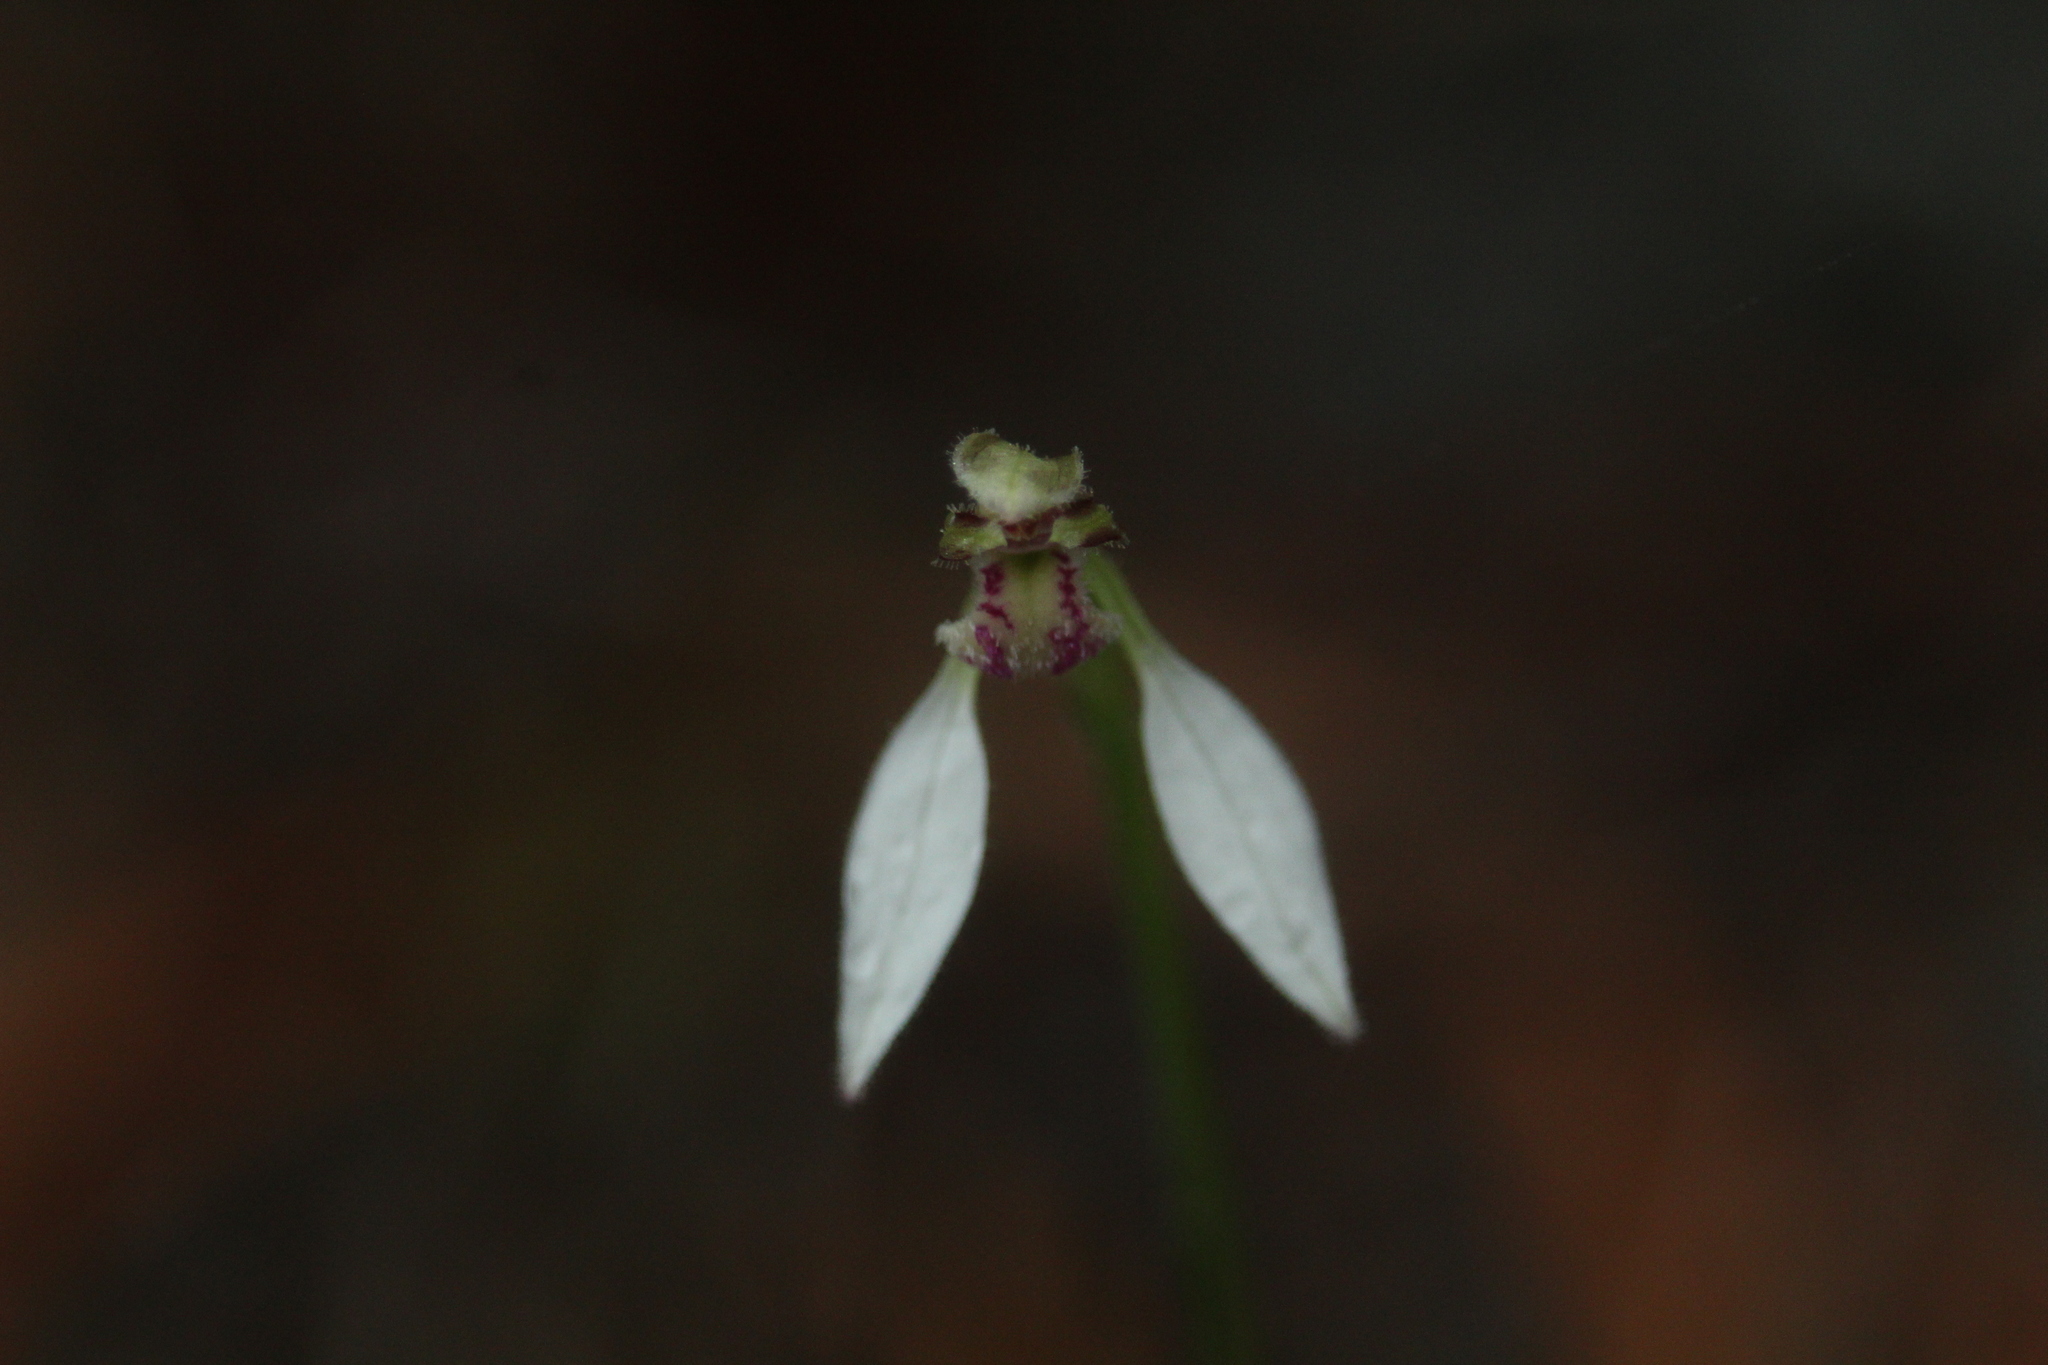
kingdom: Plantae
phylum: Tracheophyta
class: Liliopsida
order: Asparagales
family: Orchidaceae
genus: Eriochilus
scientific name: Eriochilus dilatatus
